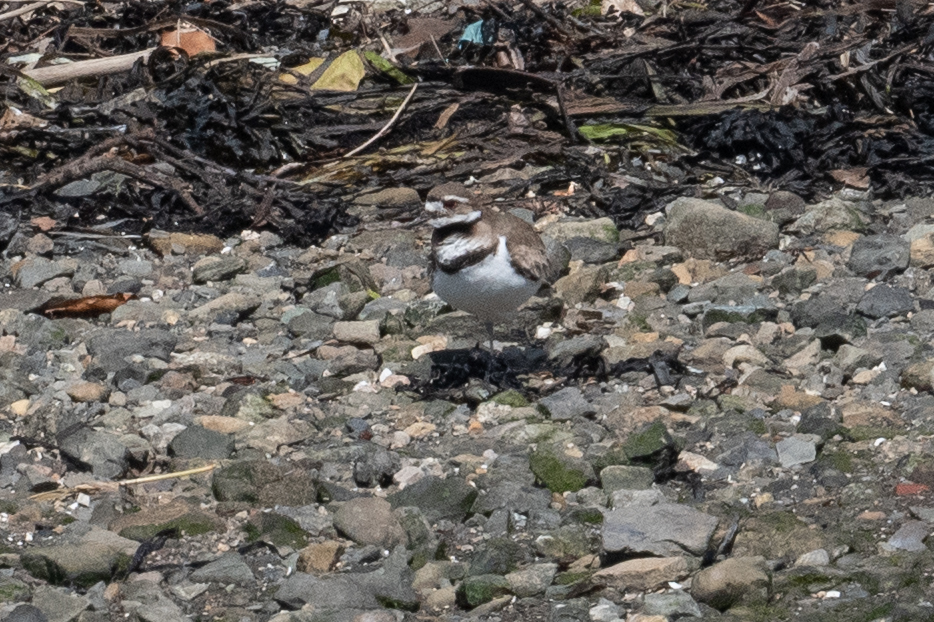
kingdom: Animalia
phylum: Chordata
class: Aves
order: Charadriiformes
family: Charadriidae
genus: Charadrius
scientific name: Charadrius vociferus
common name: Killdeer
